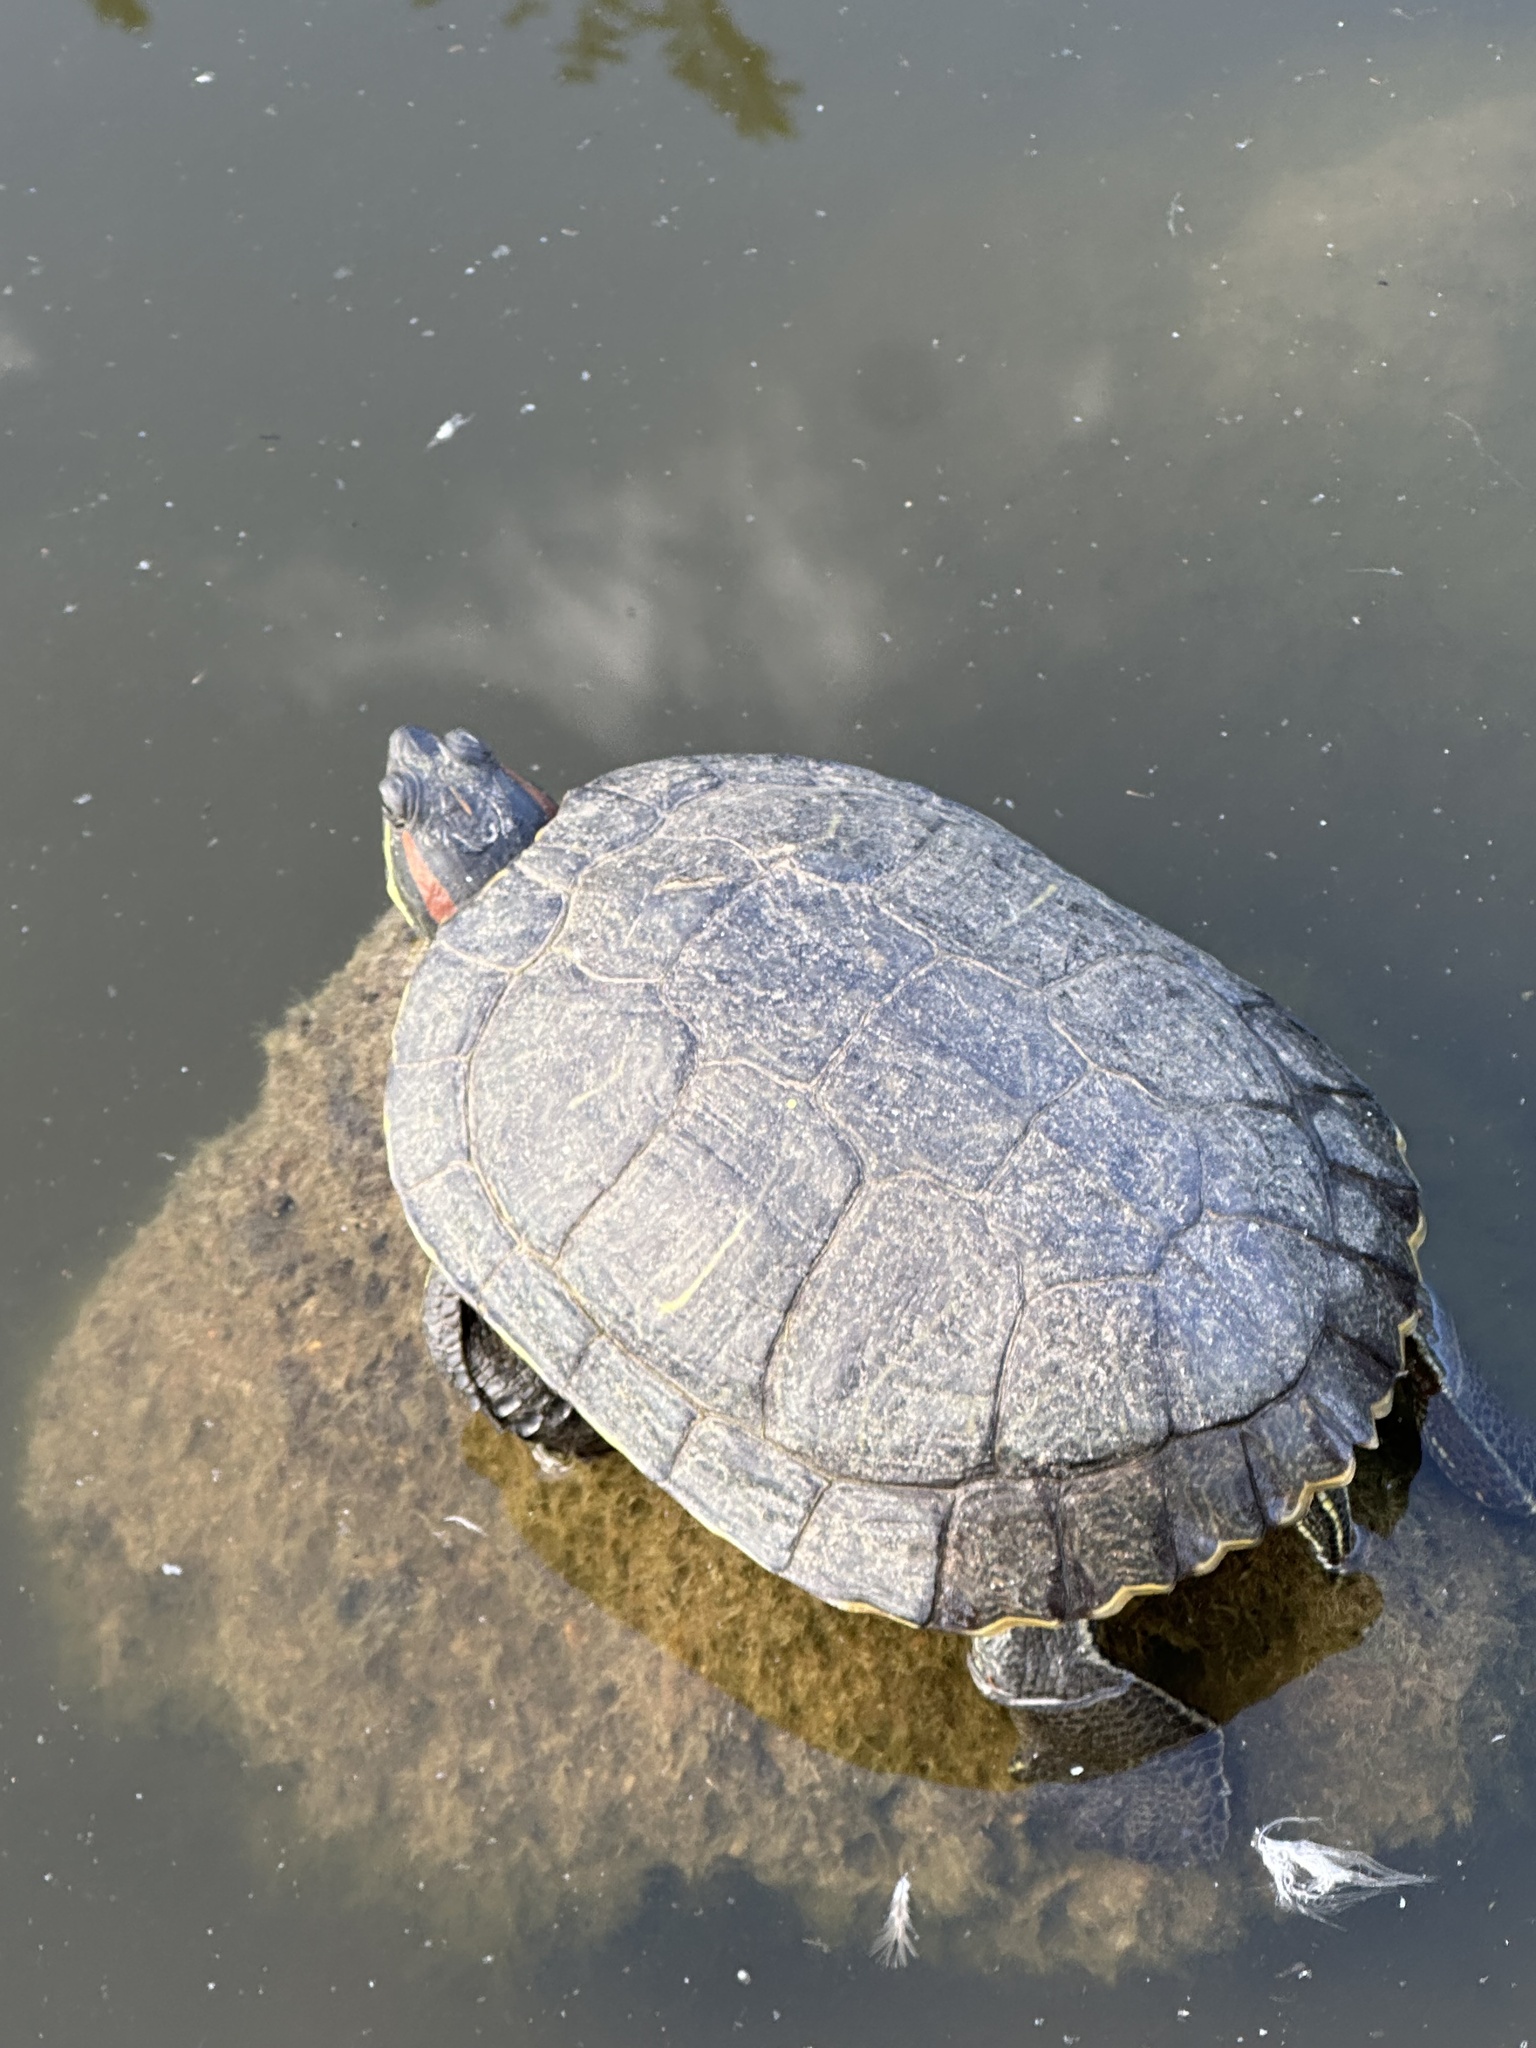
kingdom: Animalia
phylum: Chordata
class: Testudines
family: Emydidae
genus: Trachemys
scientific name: Trachemys scripta
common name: Slider
